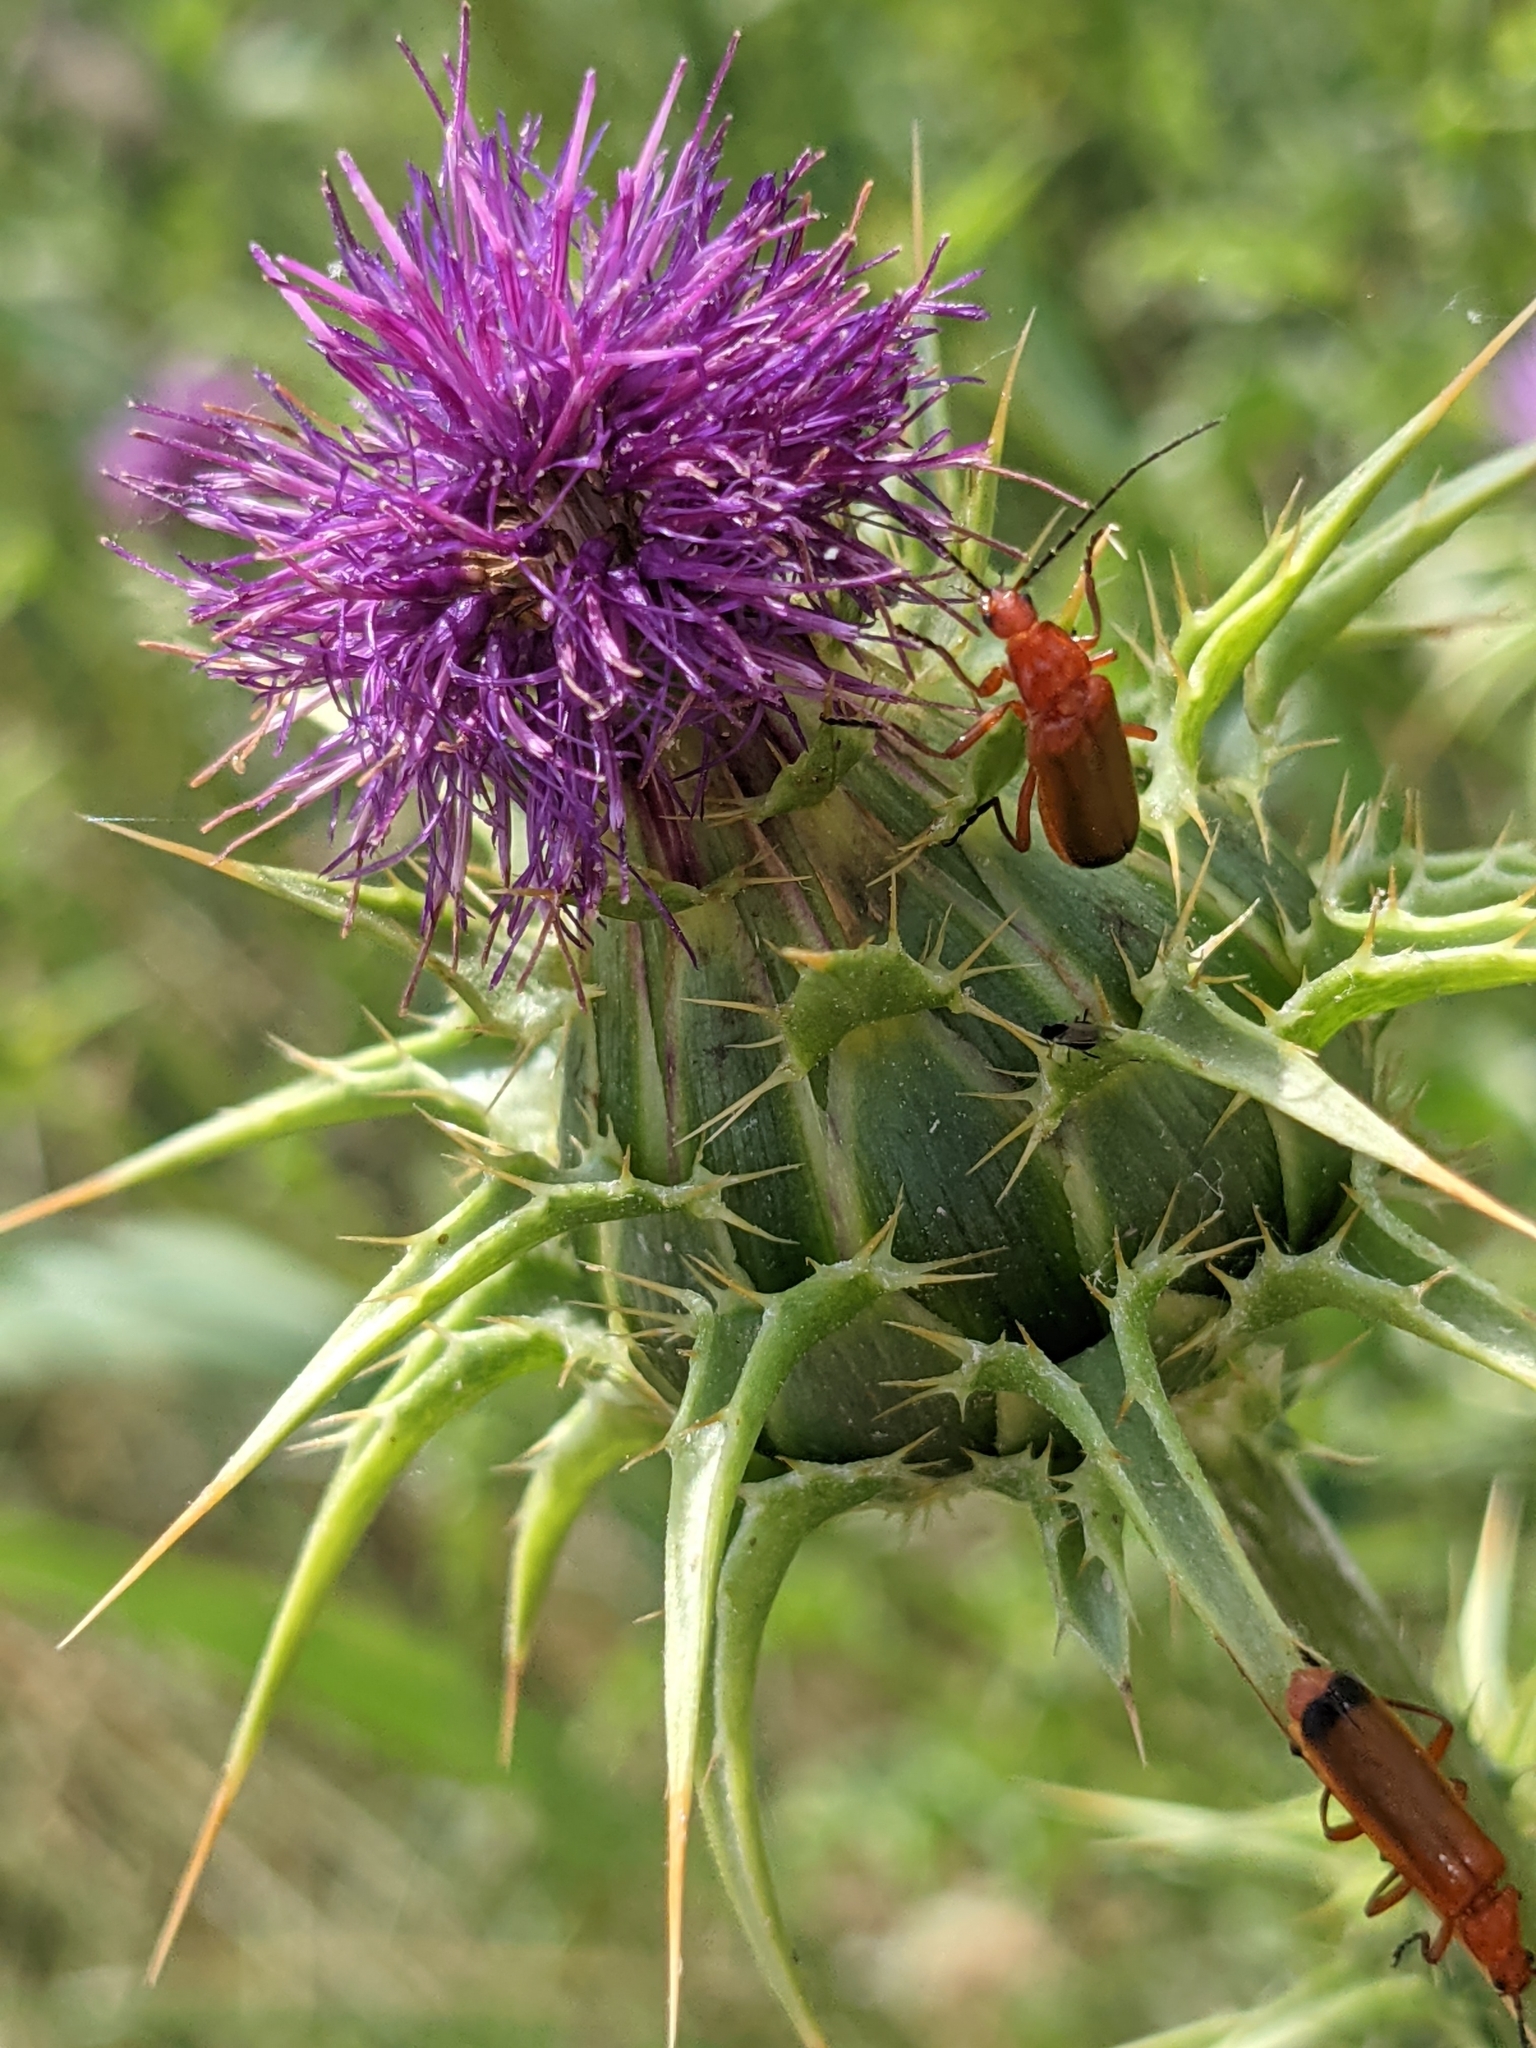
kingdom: Animalia
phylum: Arthropoda
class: Insecta
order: Coleoptera
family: Cantharidae
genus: Rhagonycha
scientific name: Rhagonycha fulva
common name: Common red soldier beetle
